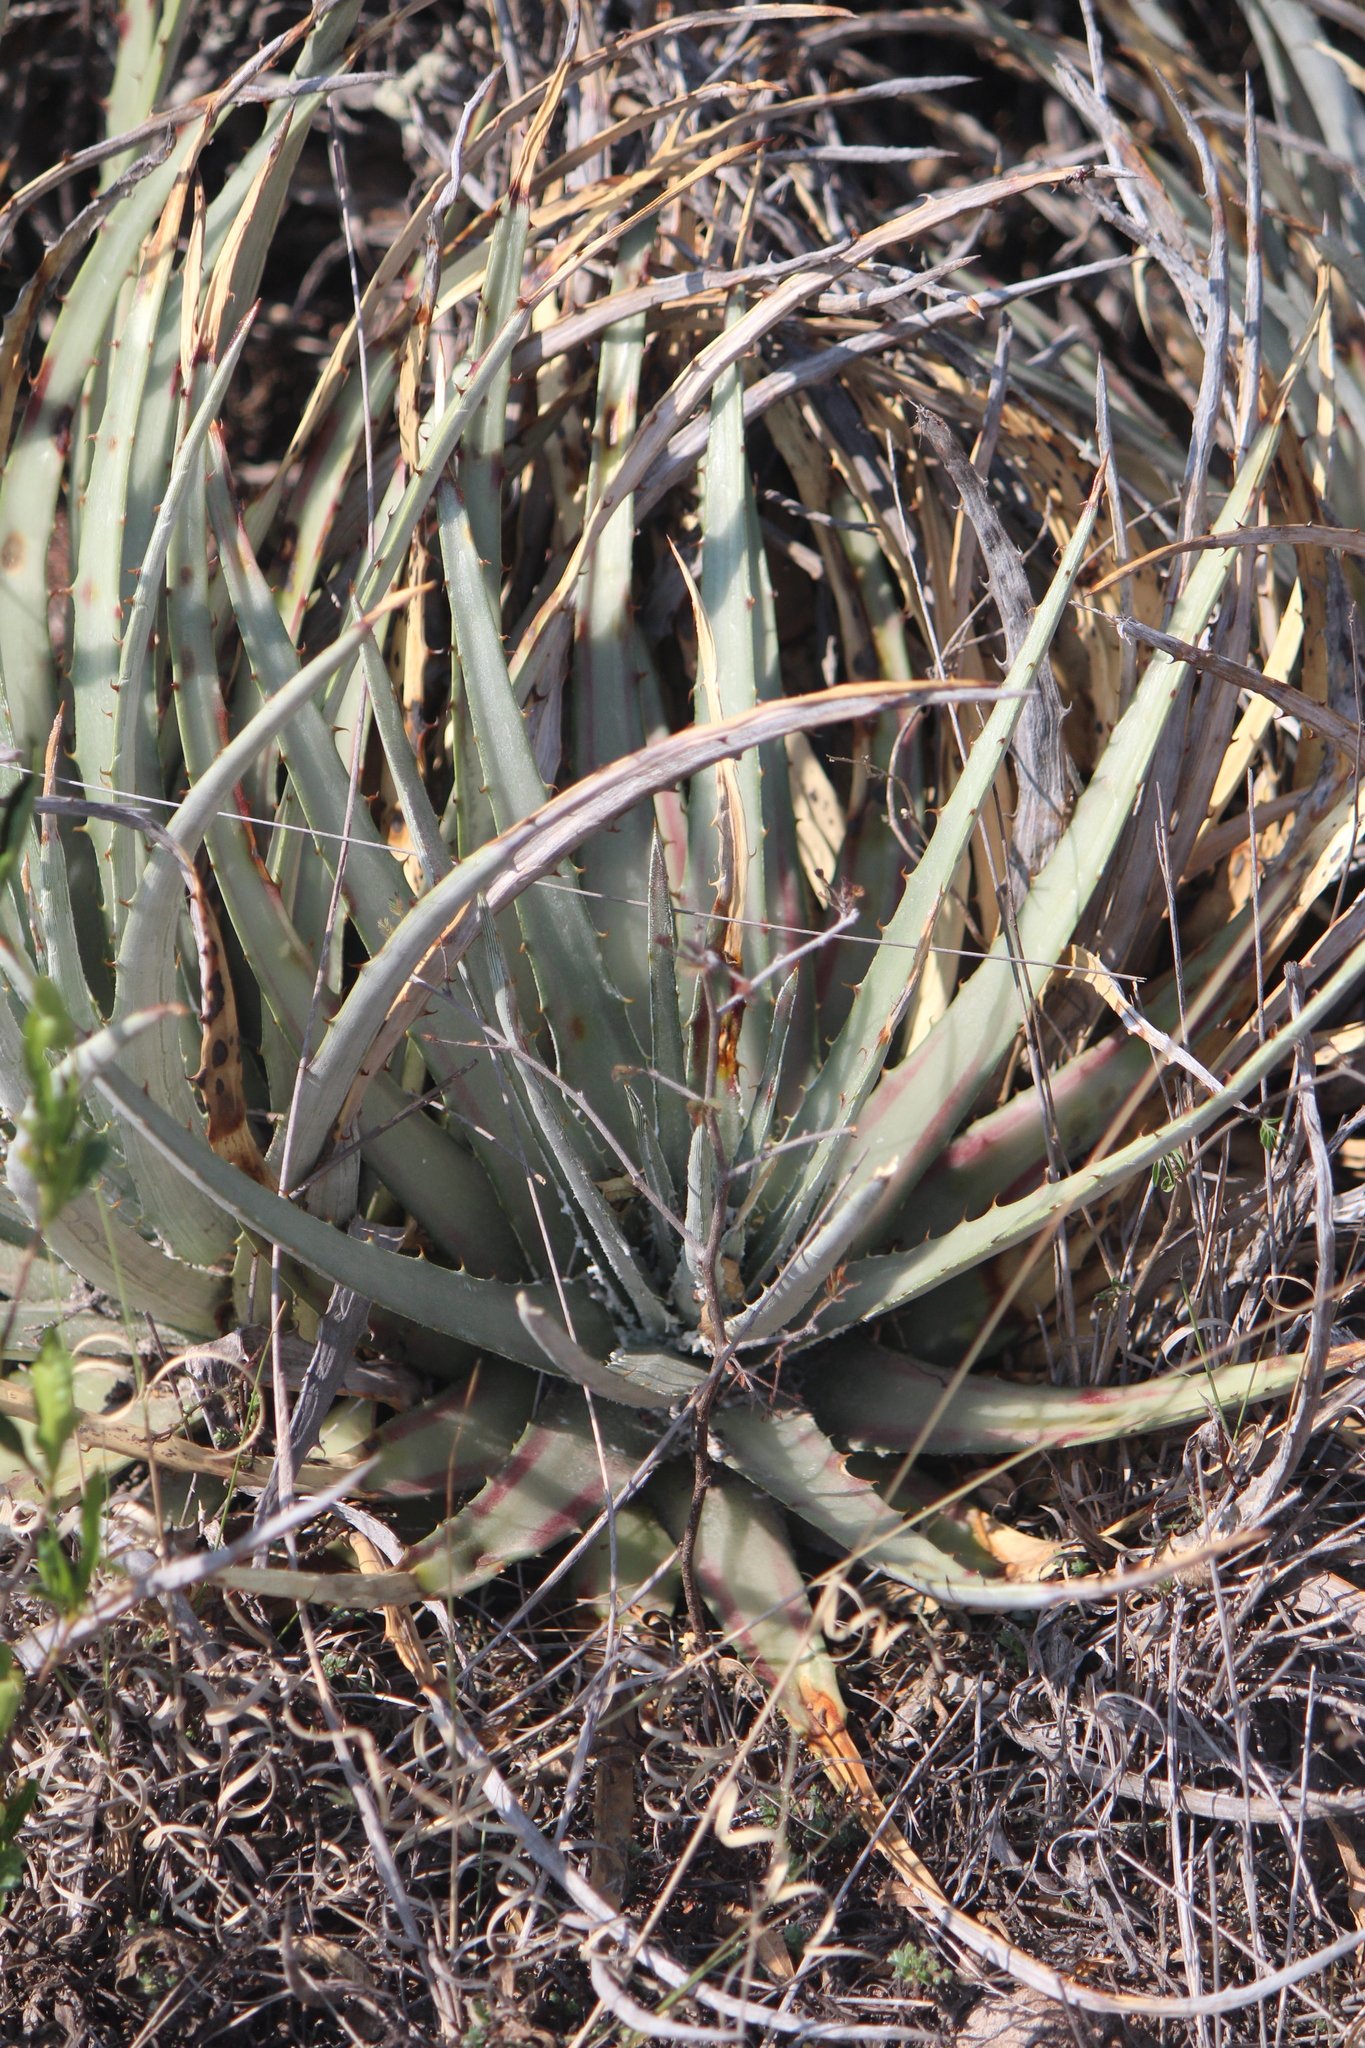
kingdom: Plantae
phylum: Tracheophyta
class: Liliopsida
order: Poales
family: Bromeliaceae
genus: Hechtia
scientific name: Hechtia podantha
